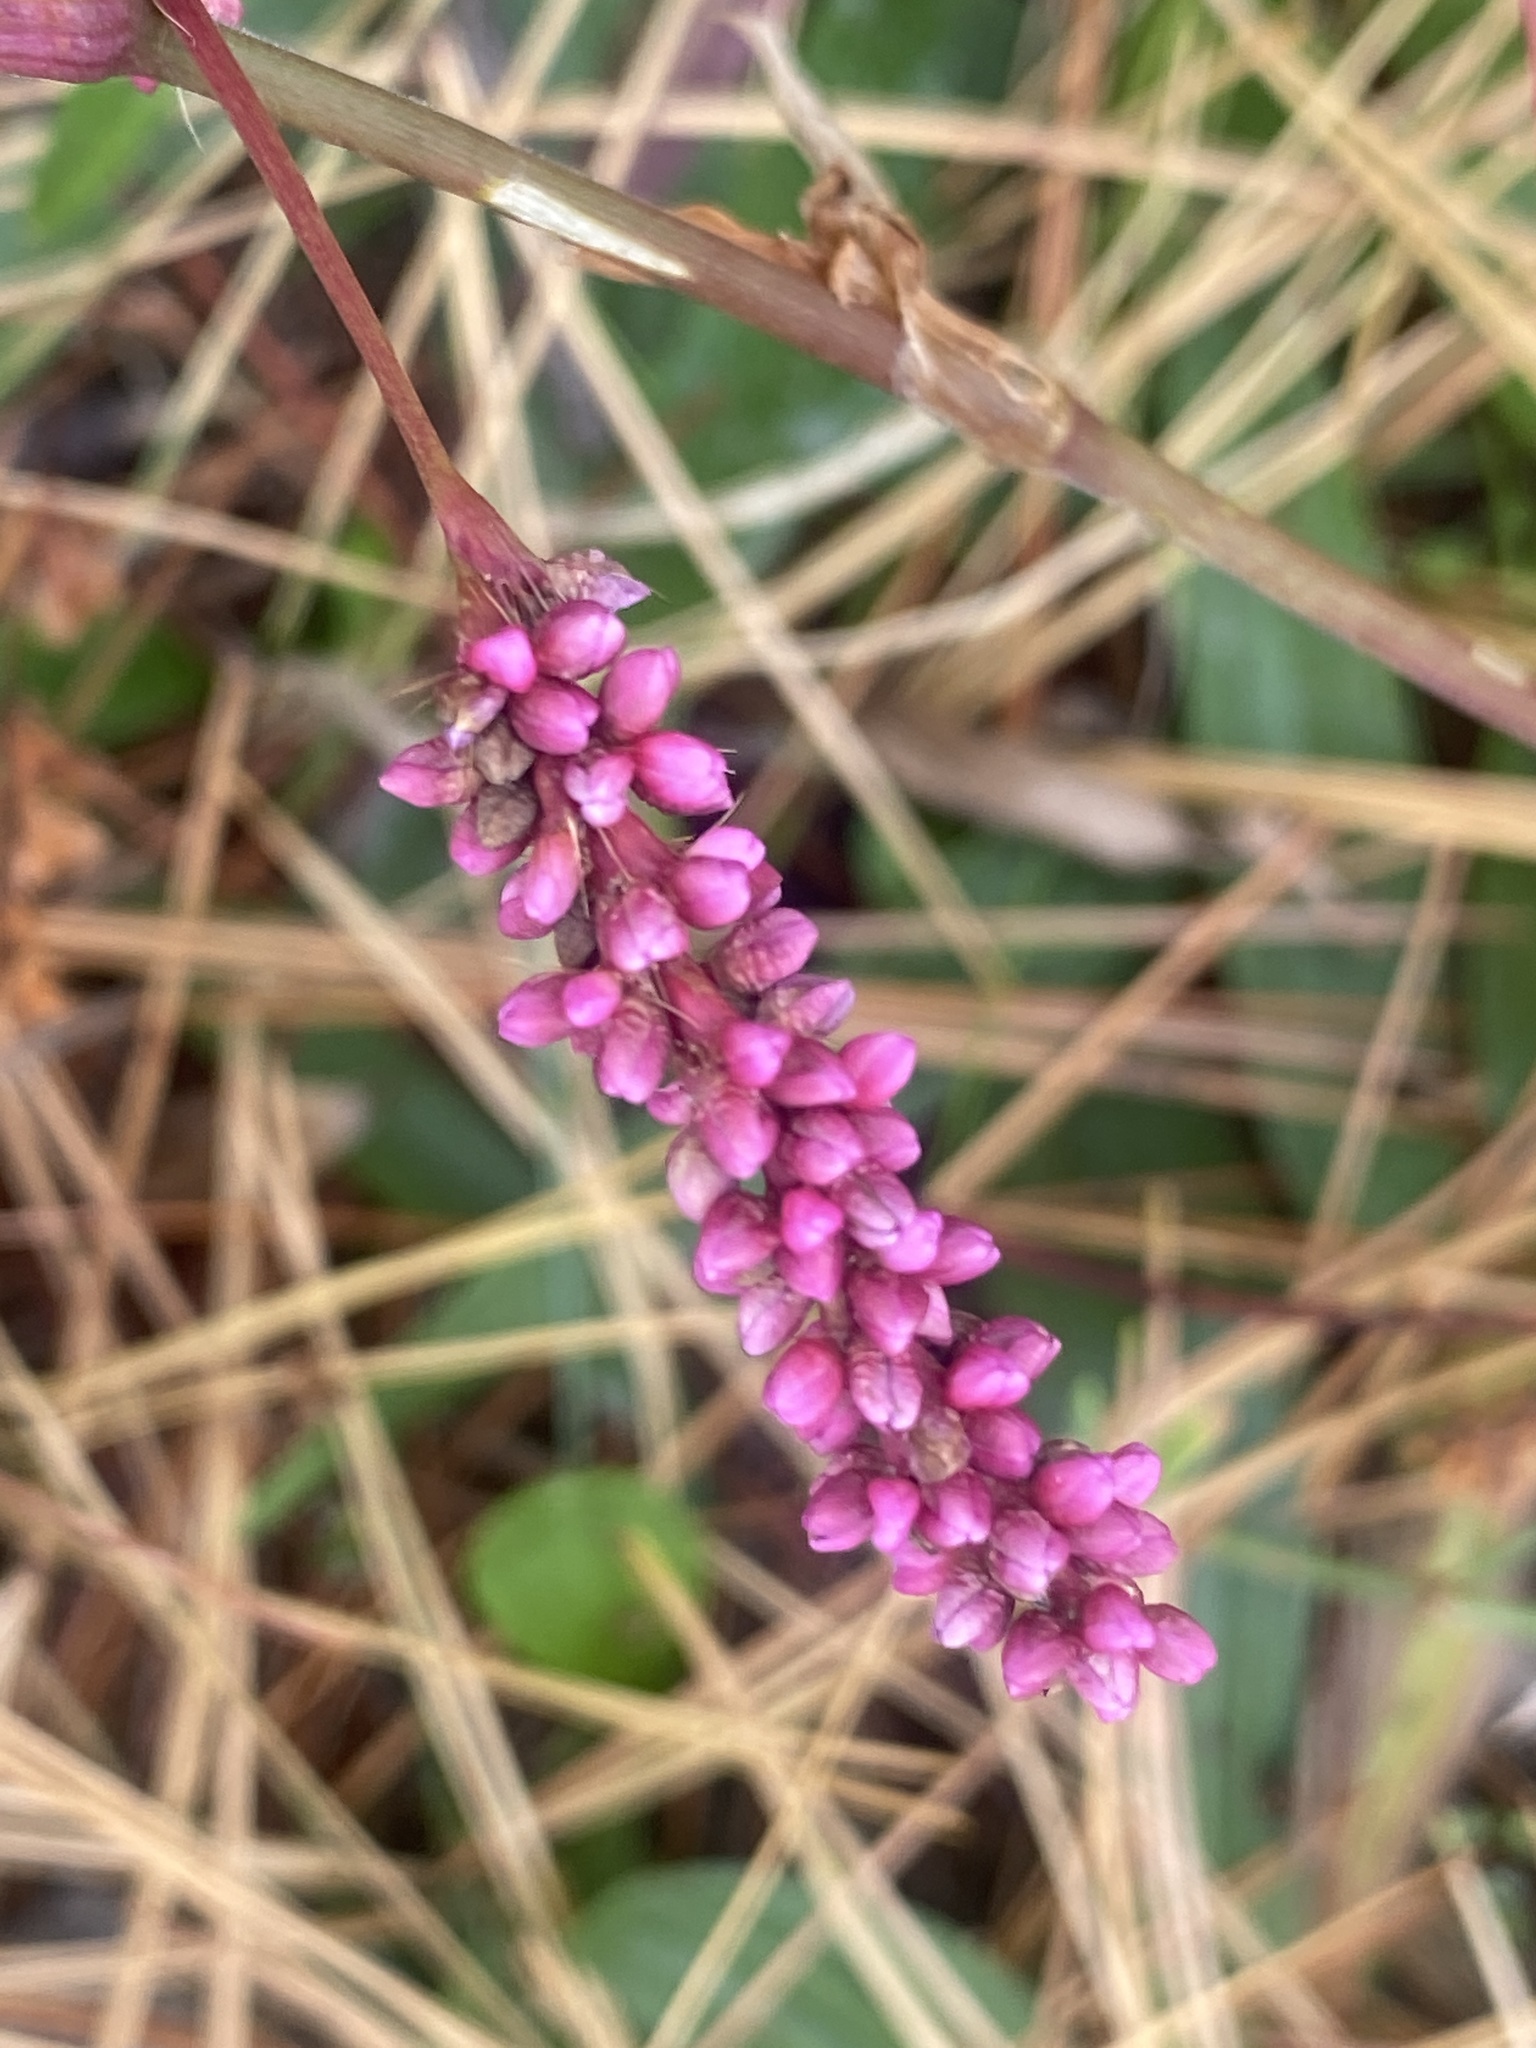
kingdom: Plantae
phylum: Tracheophyta
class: Magnoliopsida
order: Caryophyllales
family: Polygonaceae
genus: Persicaria
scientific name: Persicaria longiseta
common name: Bristly lady's-thumb
